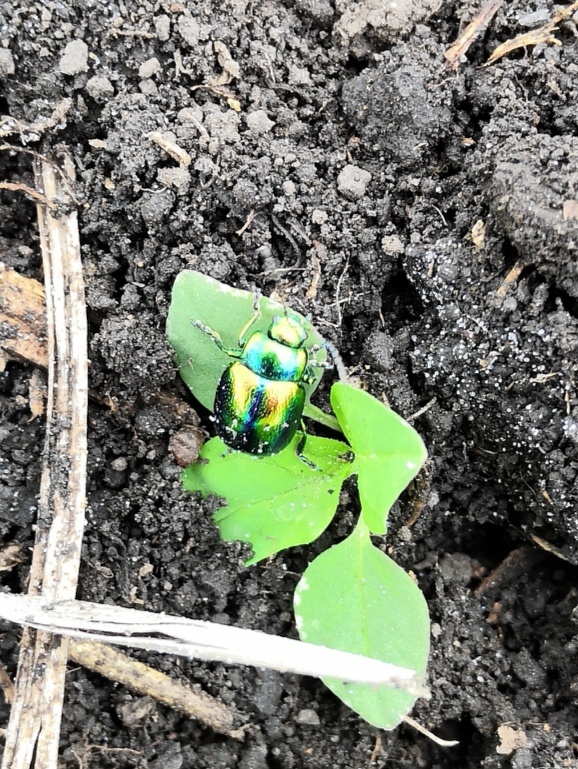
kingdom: Animalia
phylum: Arthropoda
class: Insecta
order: Coleoptera
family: Chrysomelidae
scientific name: Chrysomelidae
